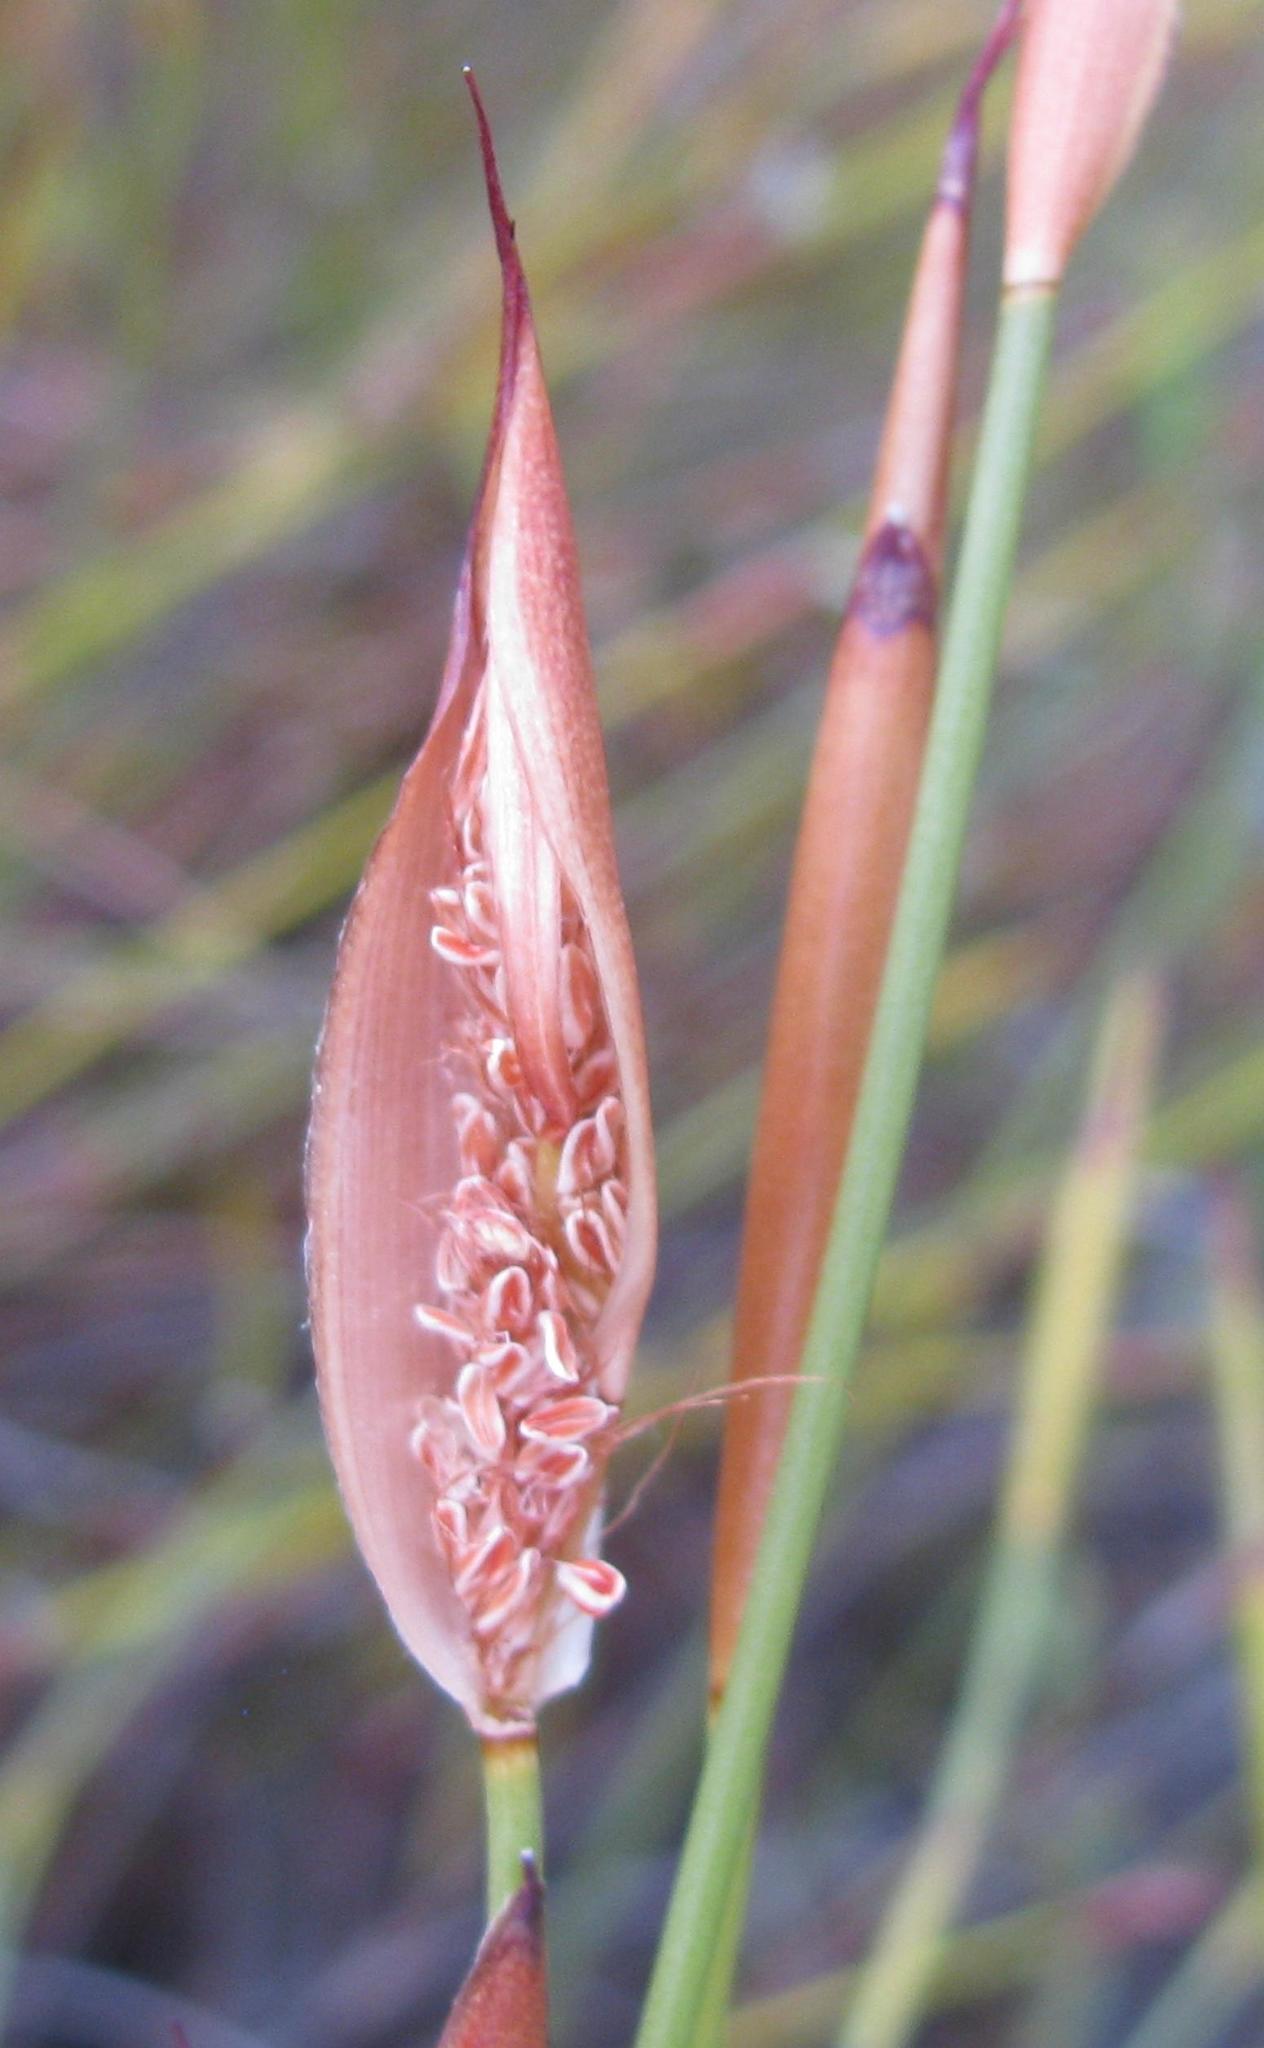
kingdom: Plantae
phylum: Tracheophyta
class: Liliopsida
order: Poales
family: Restionaceae
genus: Willdenowia
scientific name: Willdenowia sulcata
